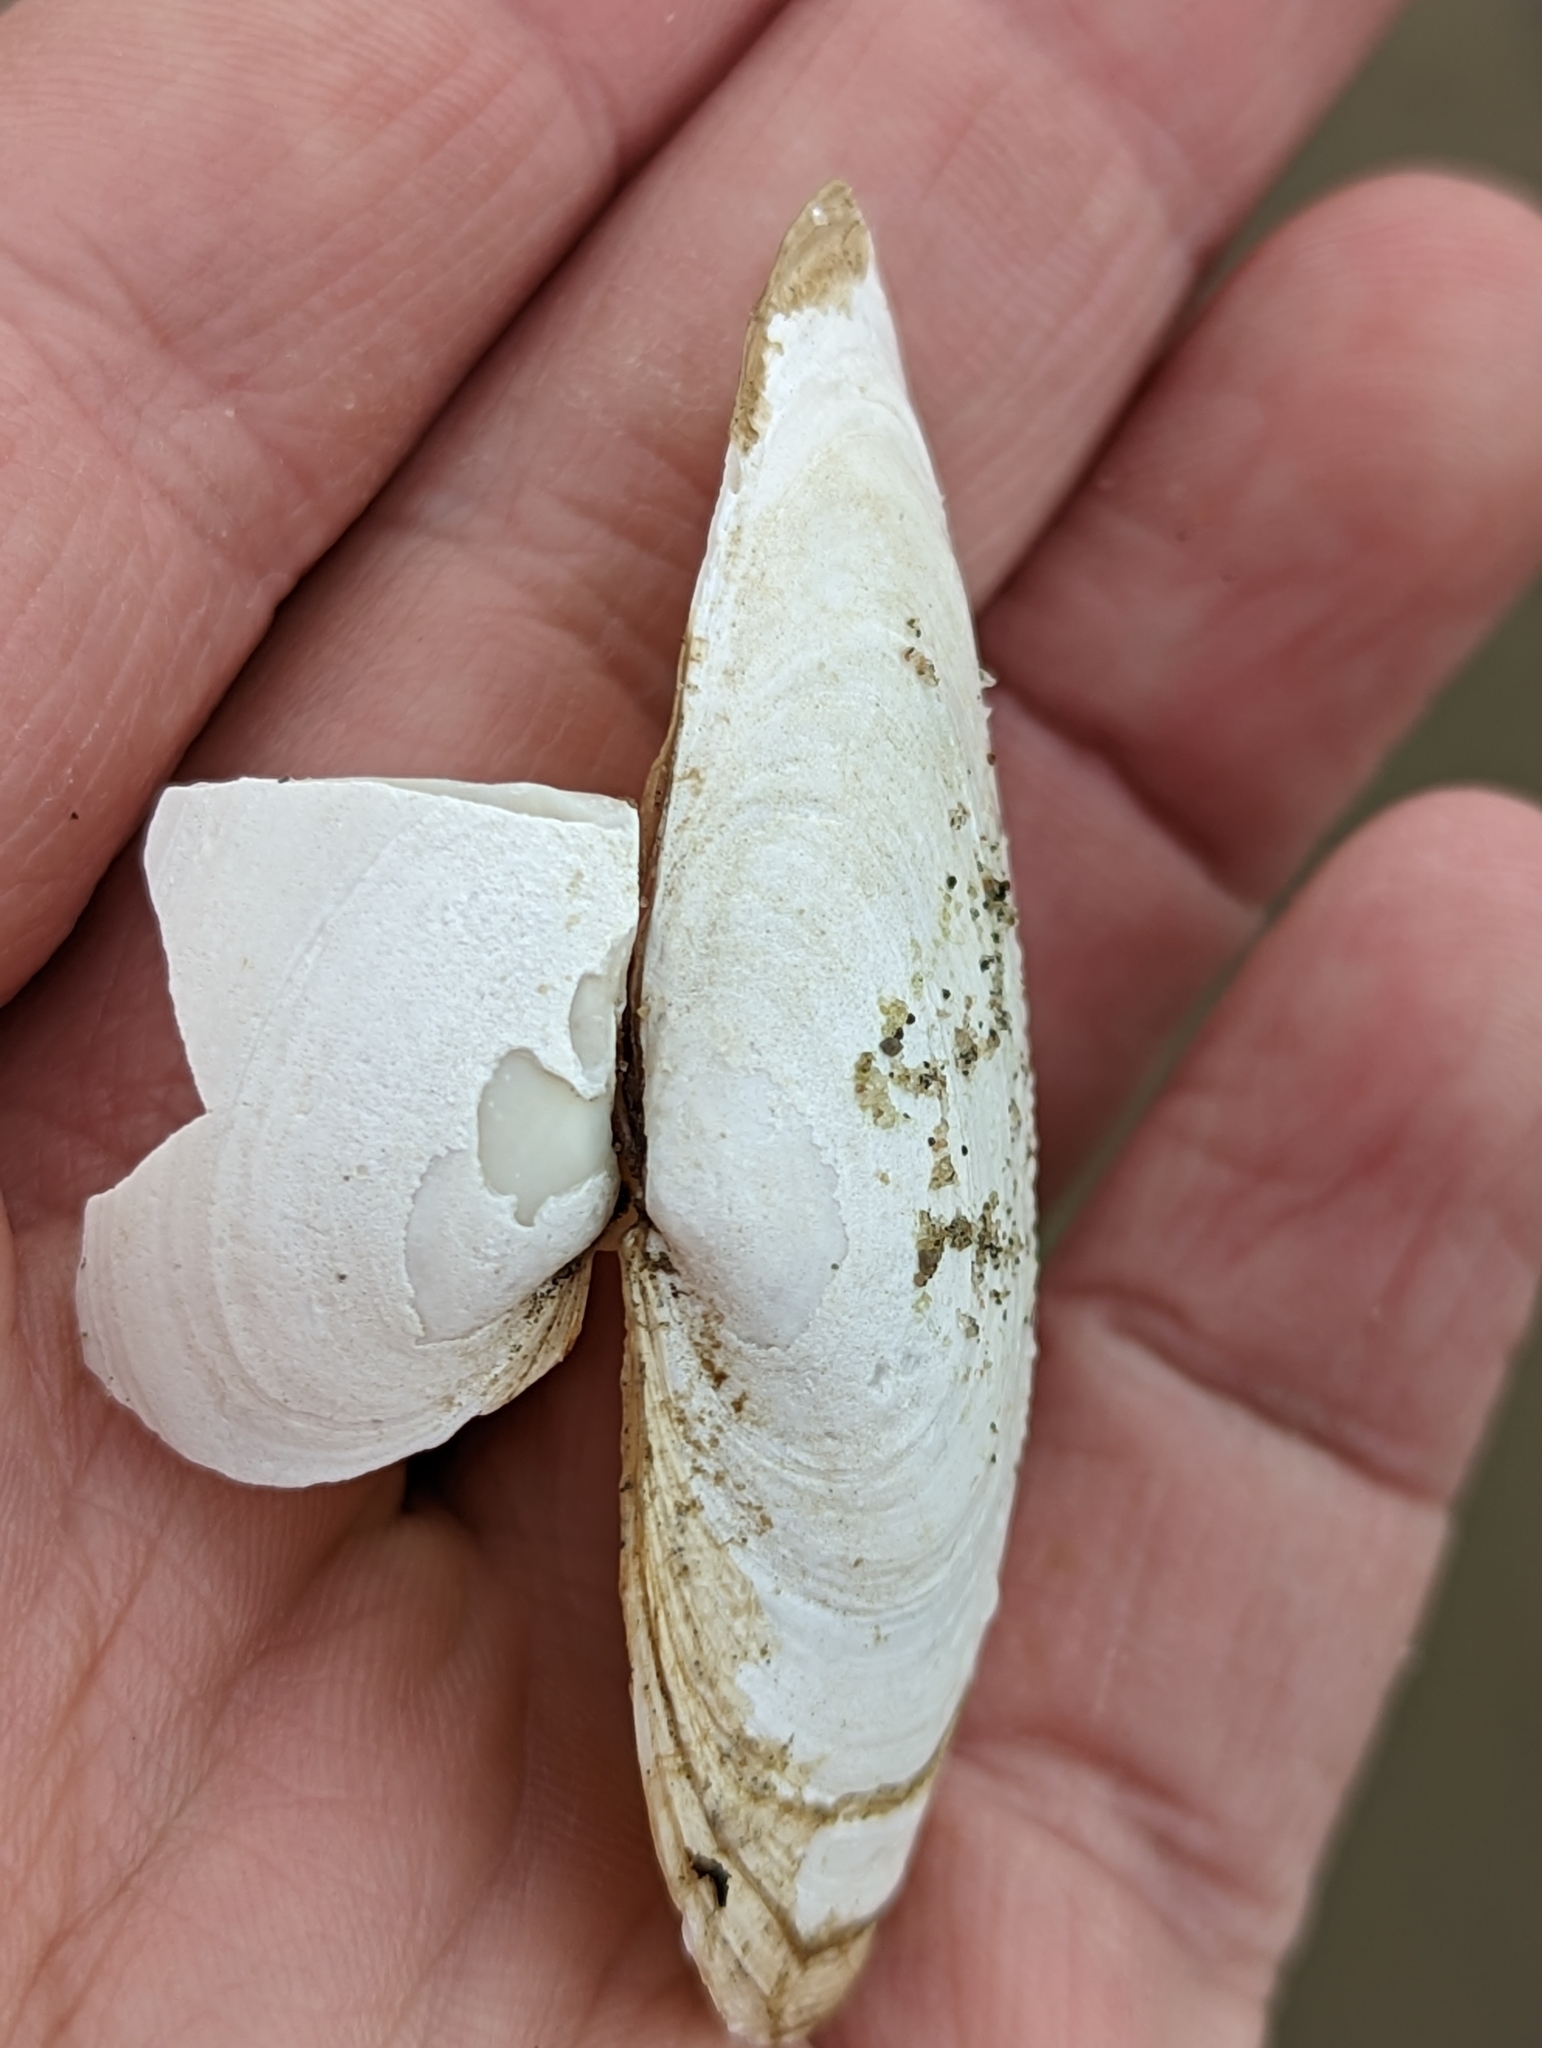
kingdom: Animalia
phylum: Mollusca
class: Bivalvia
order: Myida
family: Myidae
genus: Mya
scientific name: Mya arenaria
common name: Soft-shelled clam
